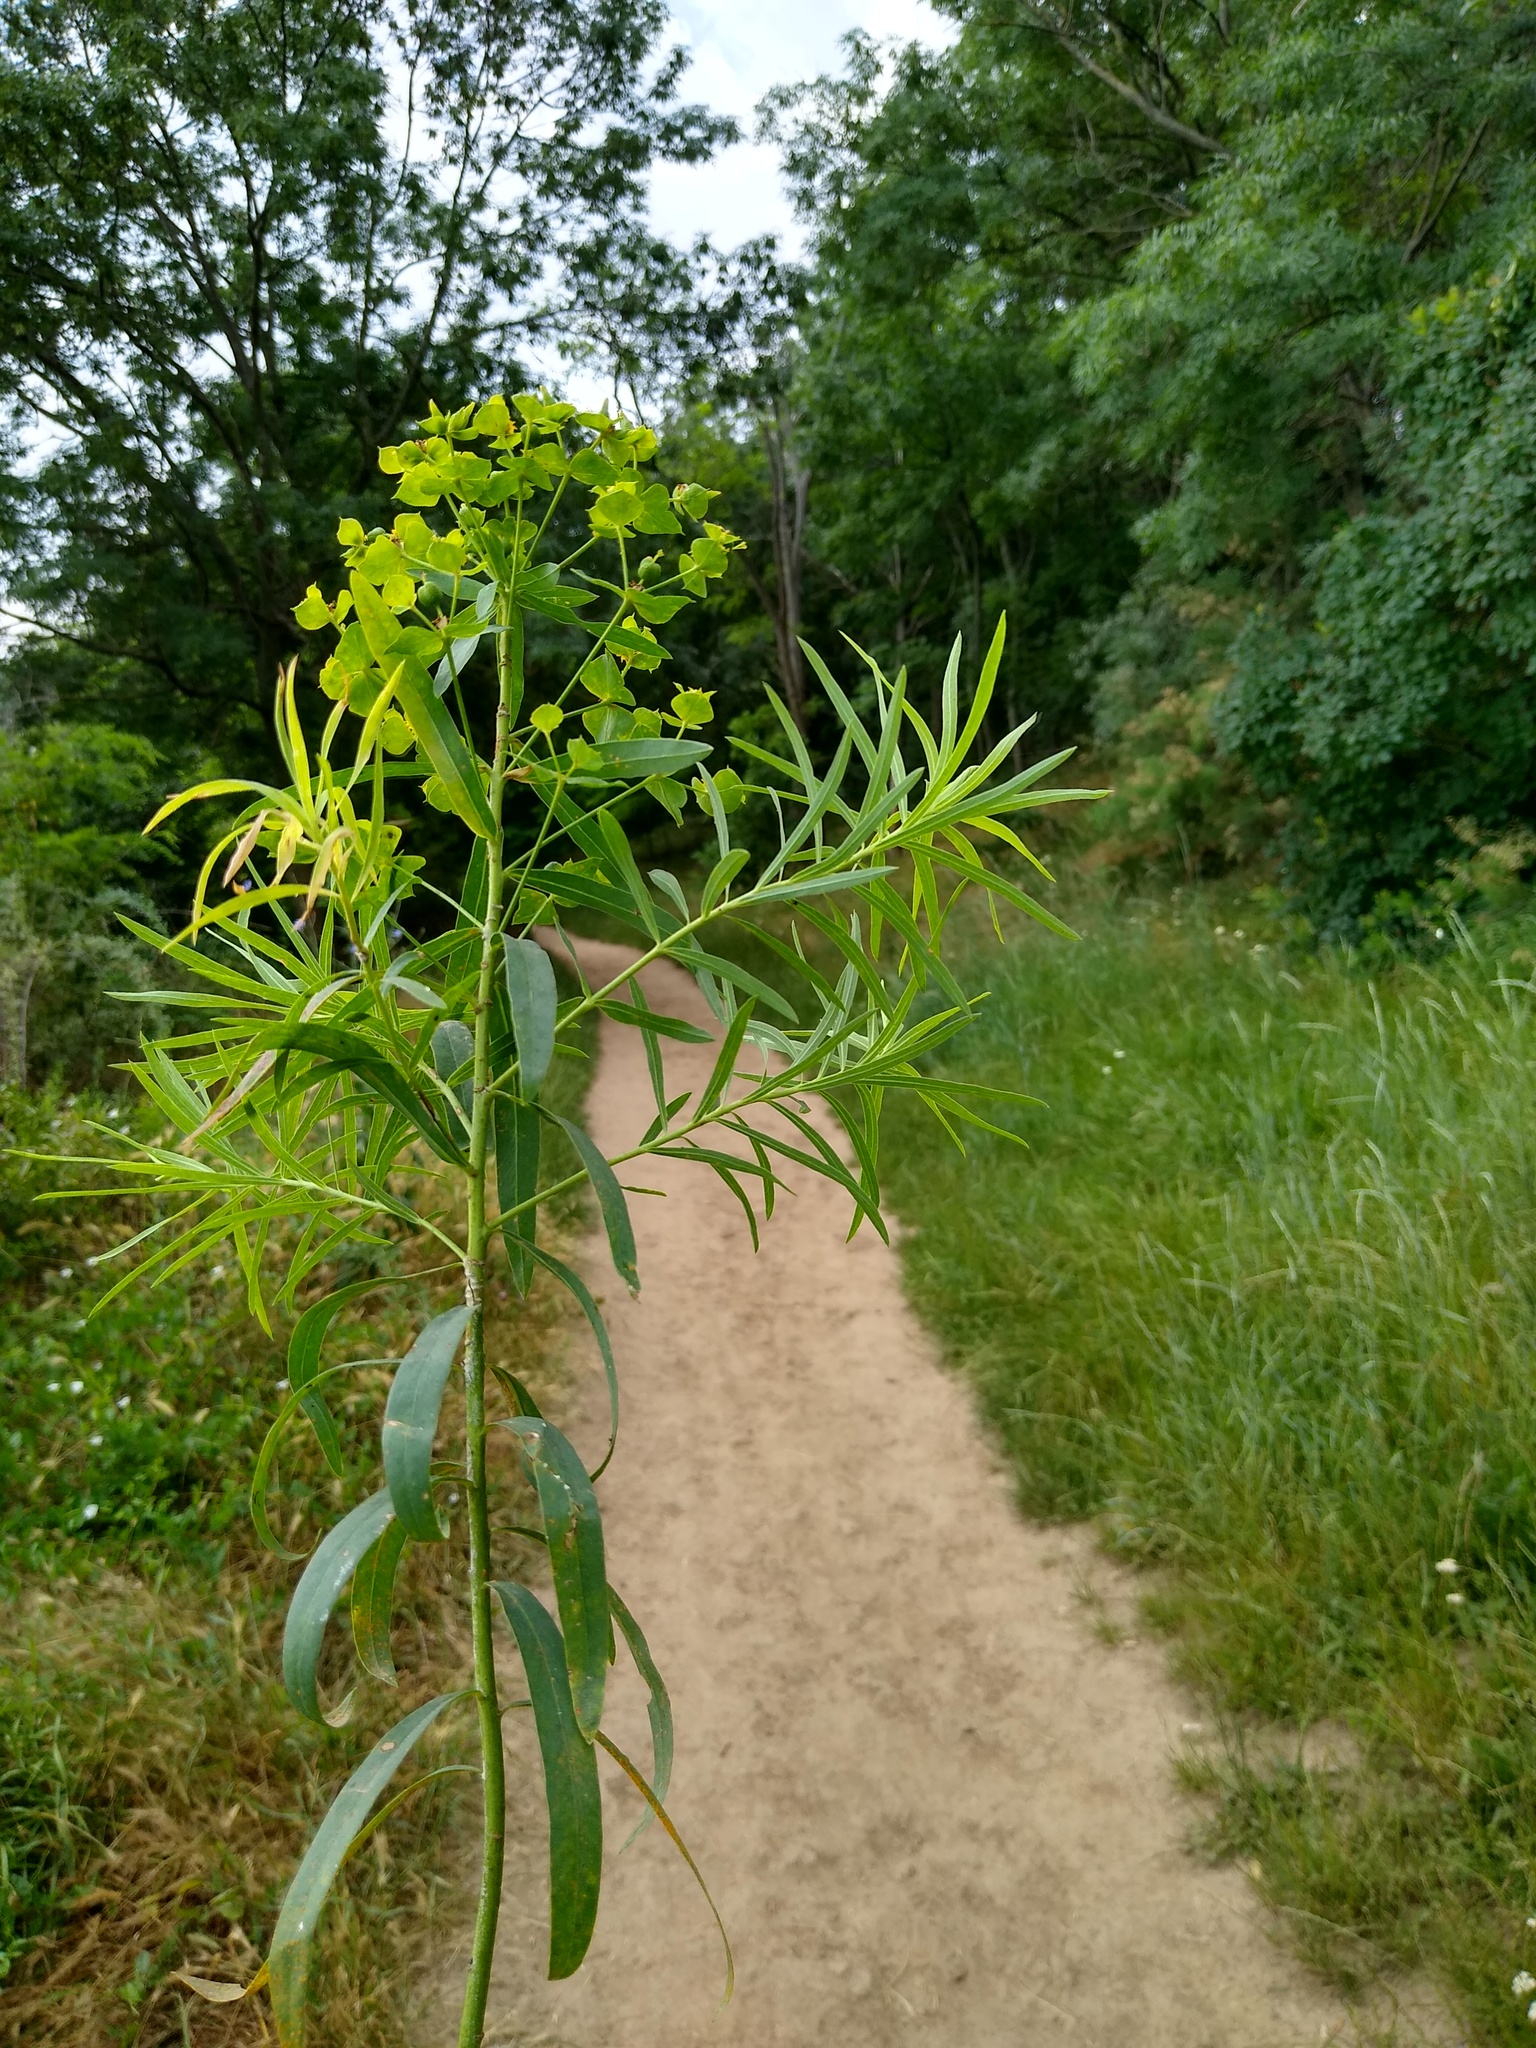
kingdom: Plantae
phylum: Tracheophyta
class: Magnoliopsida
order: Malpighiales
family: Euphorbiaceae
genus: Euphorbia
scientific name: Euphorbia virgata
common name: Leafy spurge
